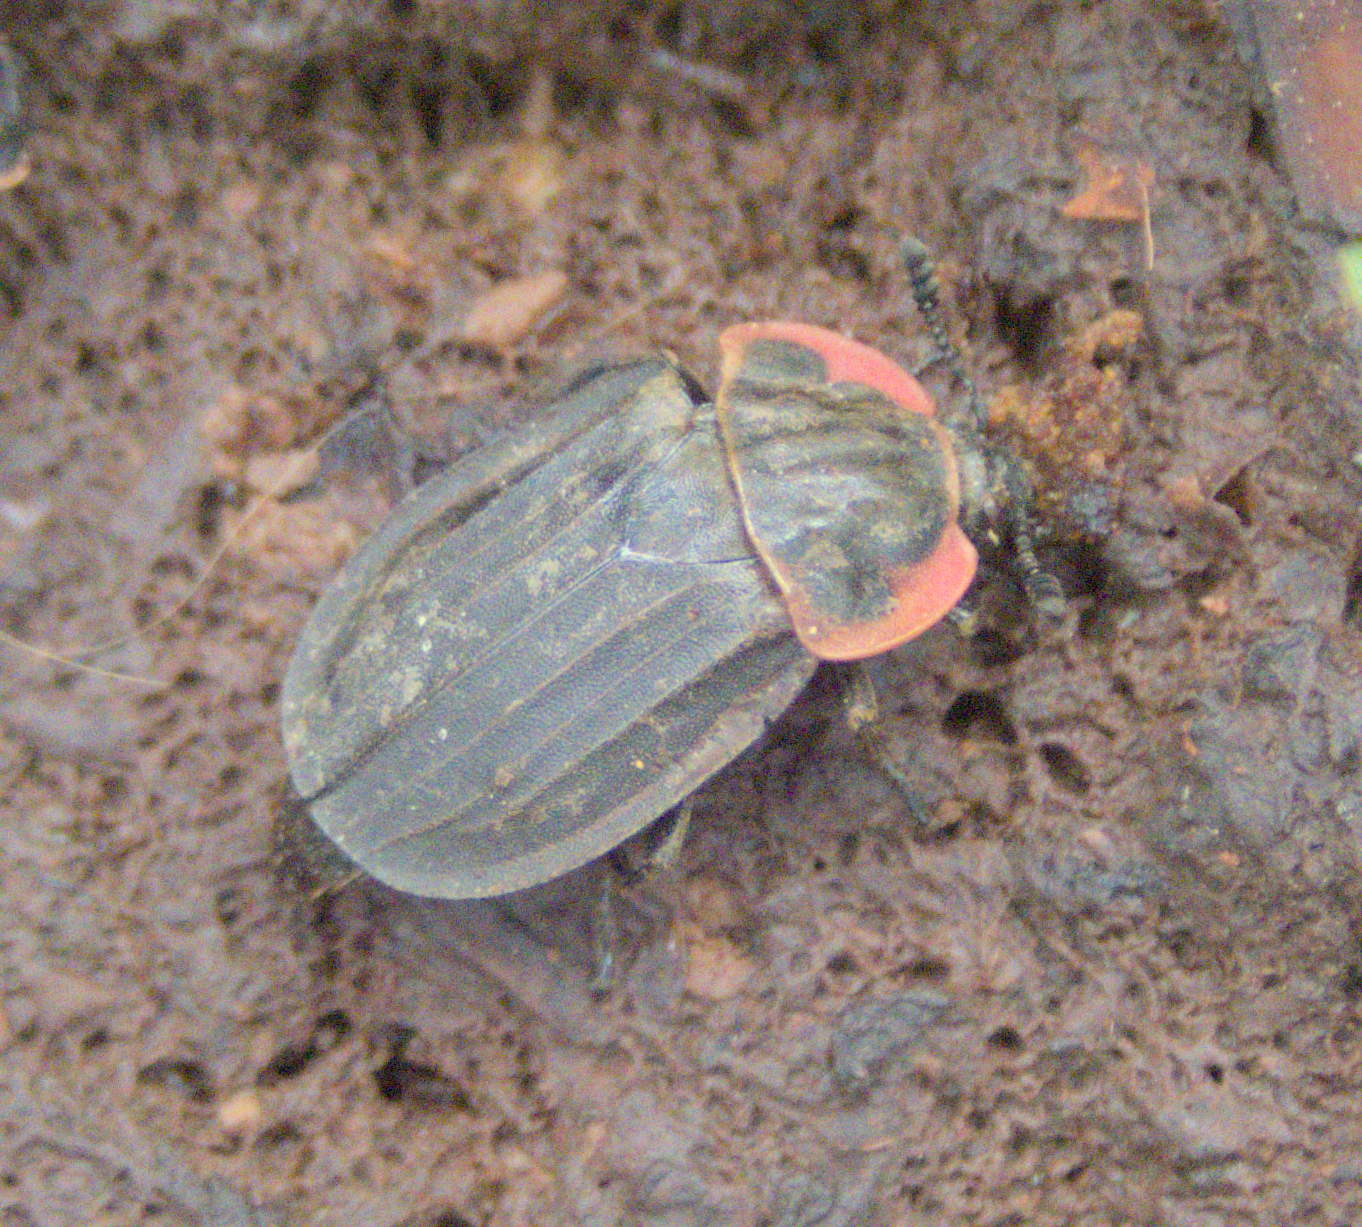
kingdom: Animalia
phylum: Arthropoda
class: Insecta
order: Coleoptera
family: Staphylinidae
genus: Oiceoptoma
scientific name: Oiceoptoma noveboracense
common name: Margined carrion beetle
